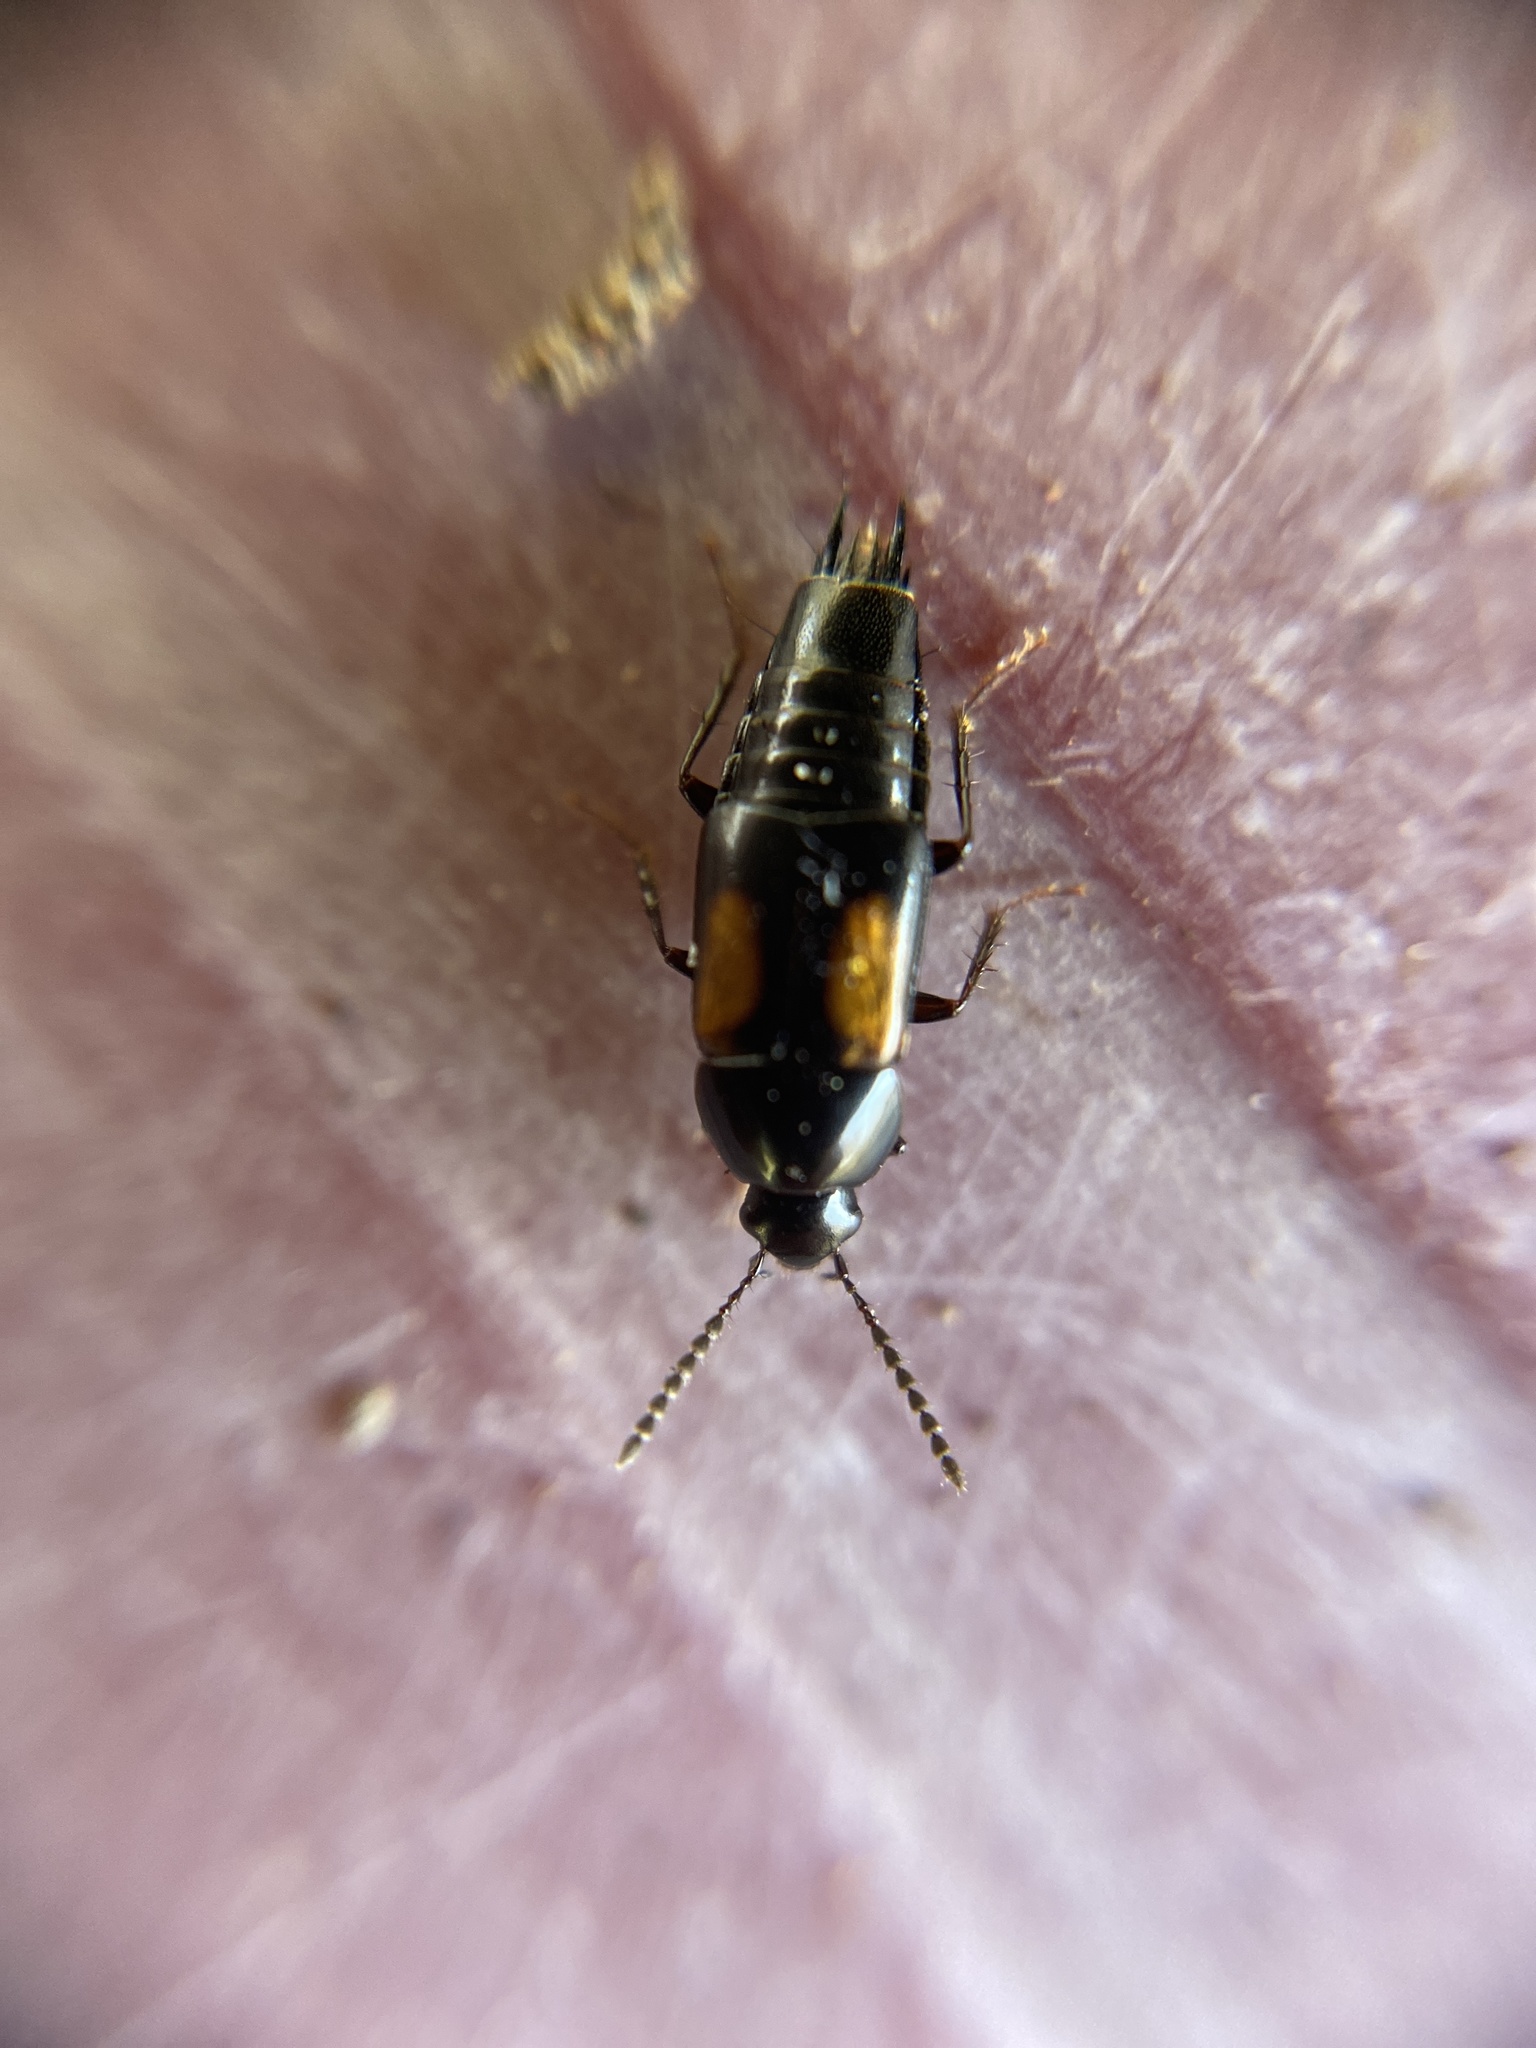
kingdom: Animalia
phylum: Arthropoda
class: Insecta
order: Coleoptera
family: Staphylinidae
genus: Tachinus
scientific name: Tachinus subterraneus
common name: Staph beetle
